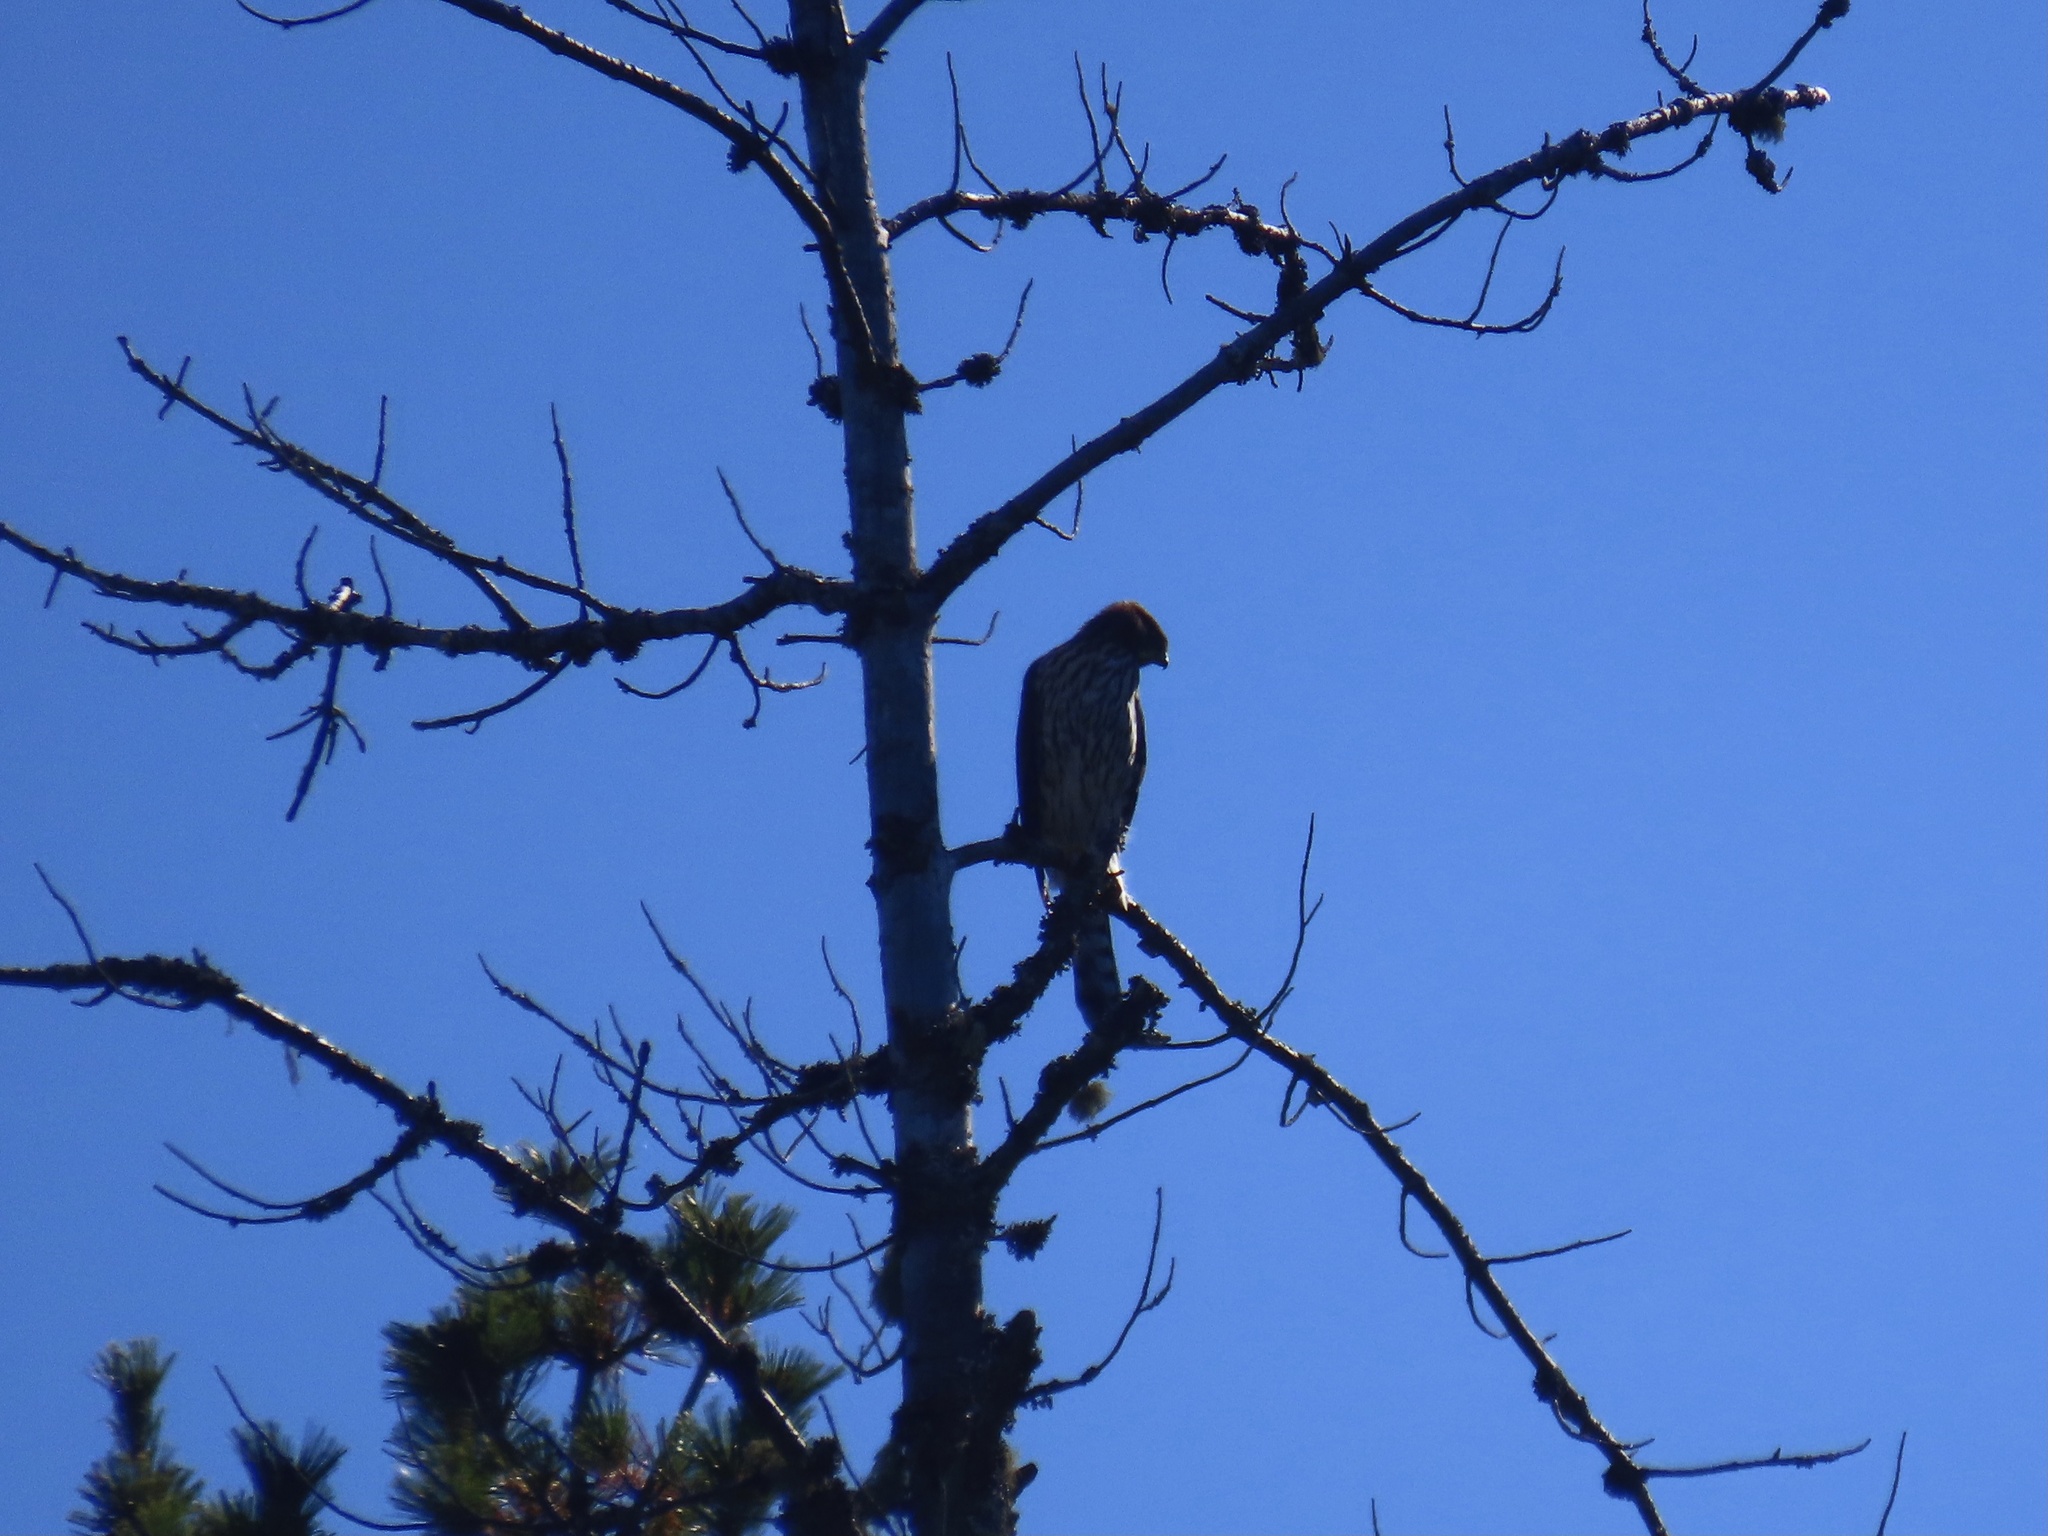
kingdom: Animalia
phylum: Chordata
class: Aves
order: Accipitriformes
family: Accipitridae
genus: Accipiter
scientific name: Accipiter cooperii
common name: Cooper's hawk
